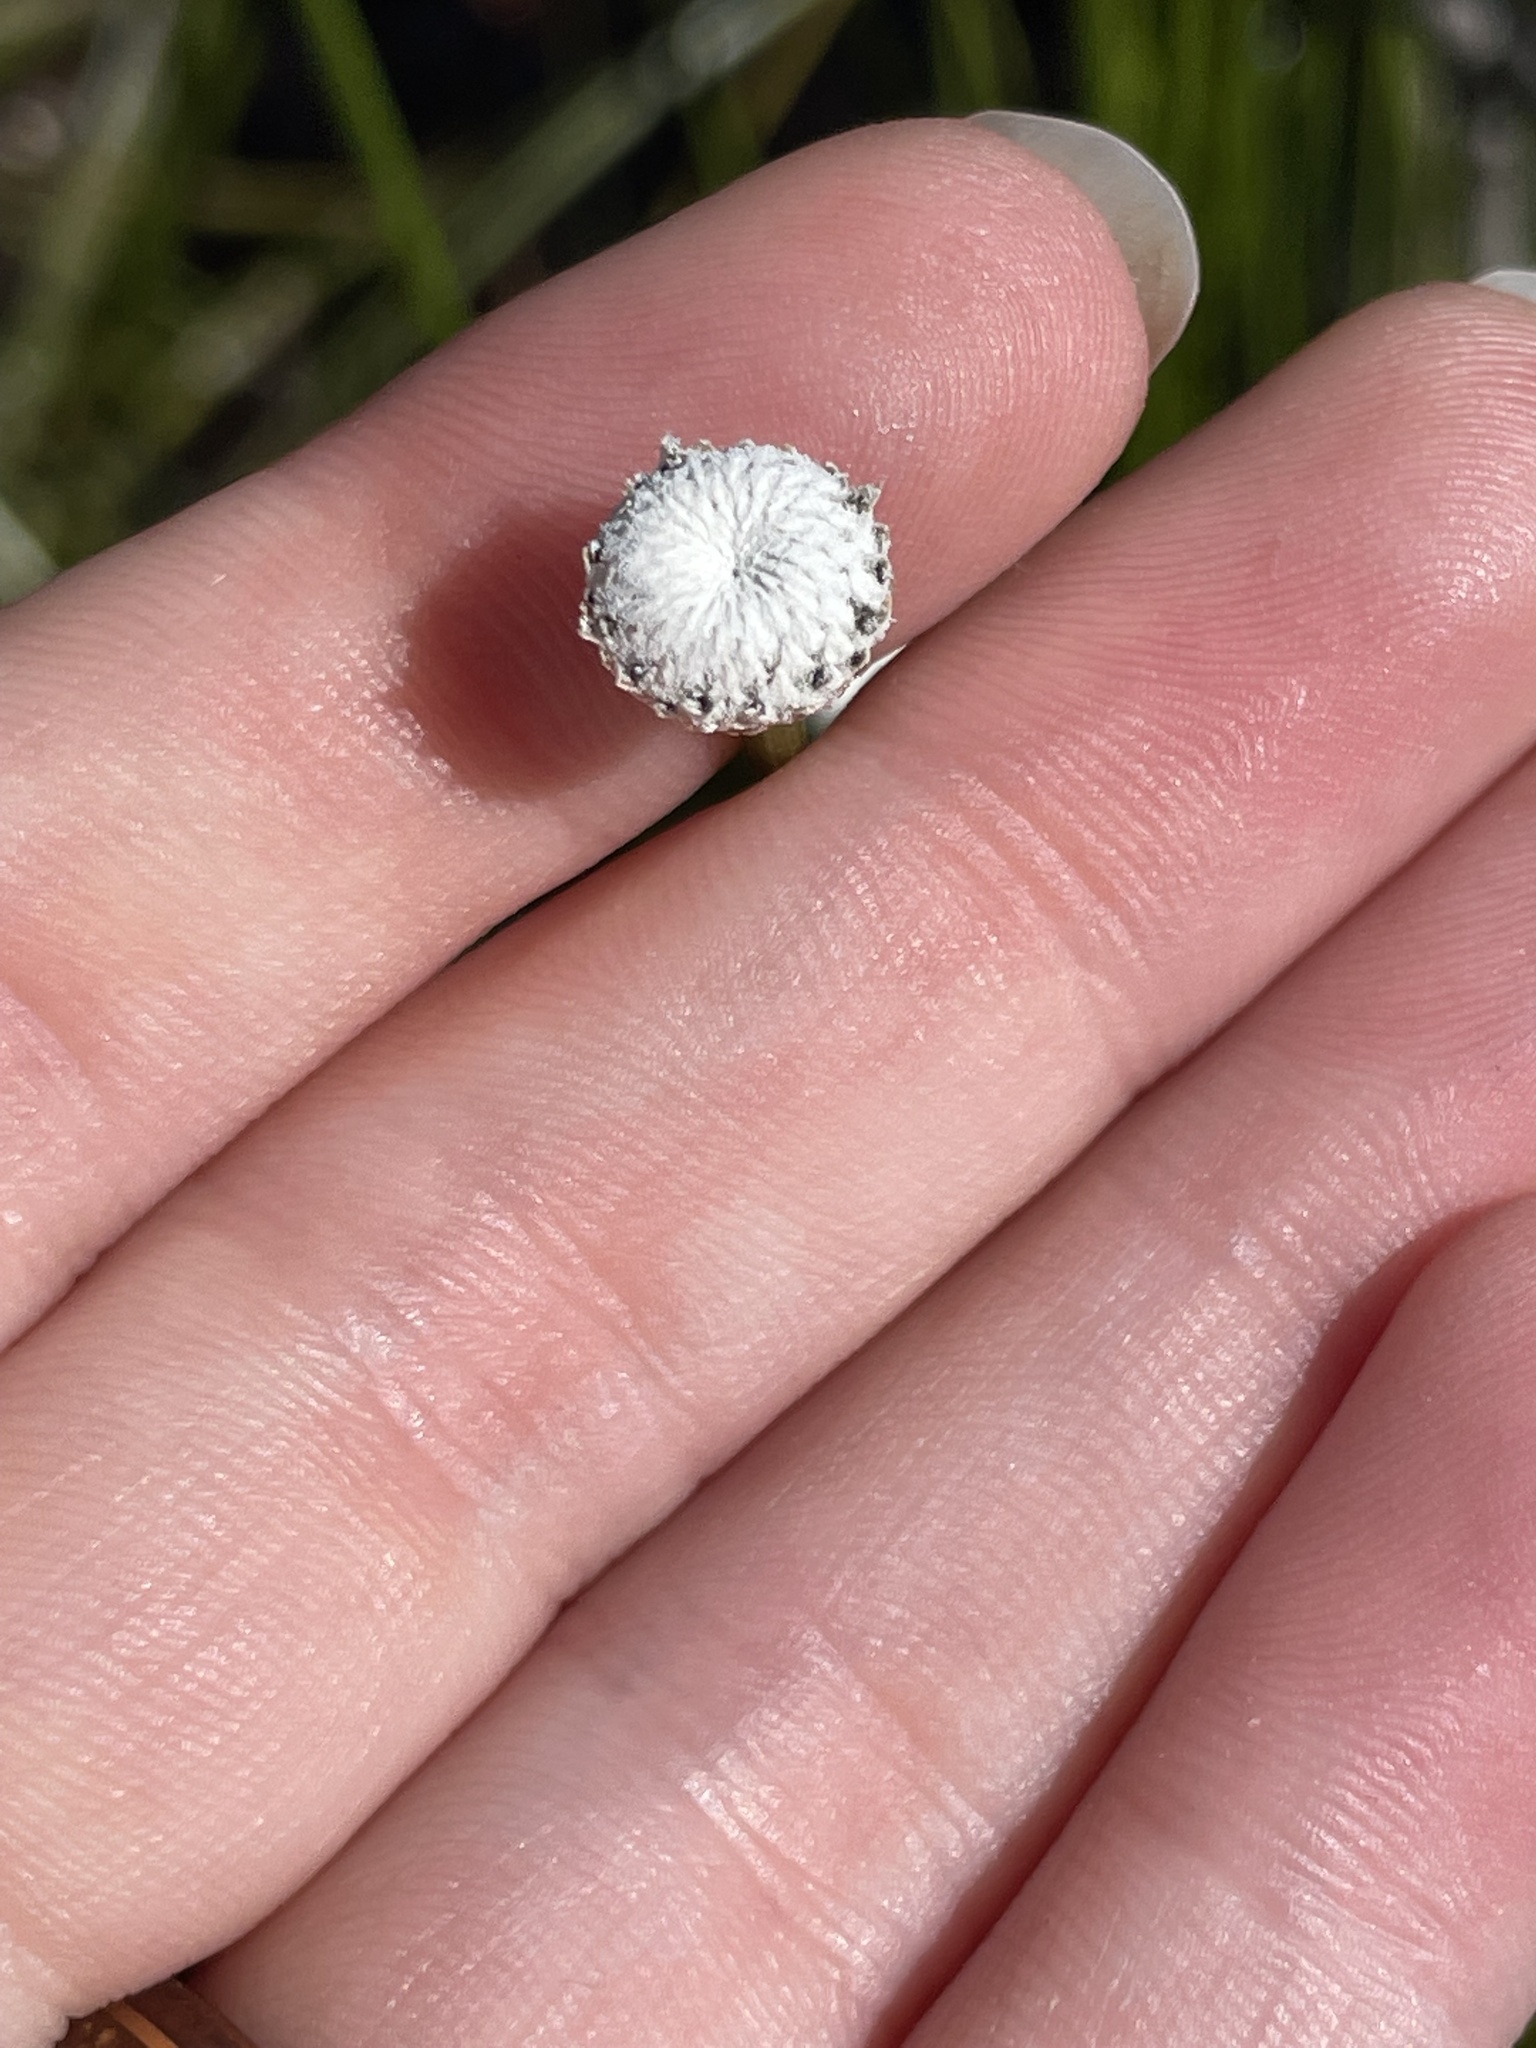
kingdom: Plantae
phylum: Tracheophyta
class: Liliopsida
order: Poales
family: Eriocaulaceae
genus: Eriocaulon
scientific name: Eriocaulon decangulare
